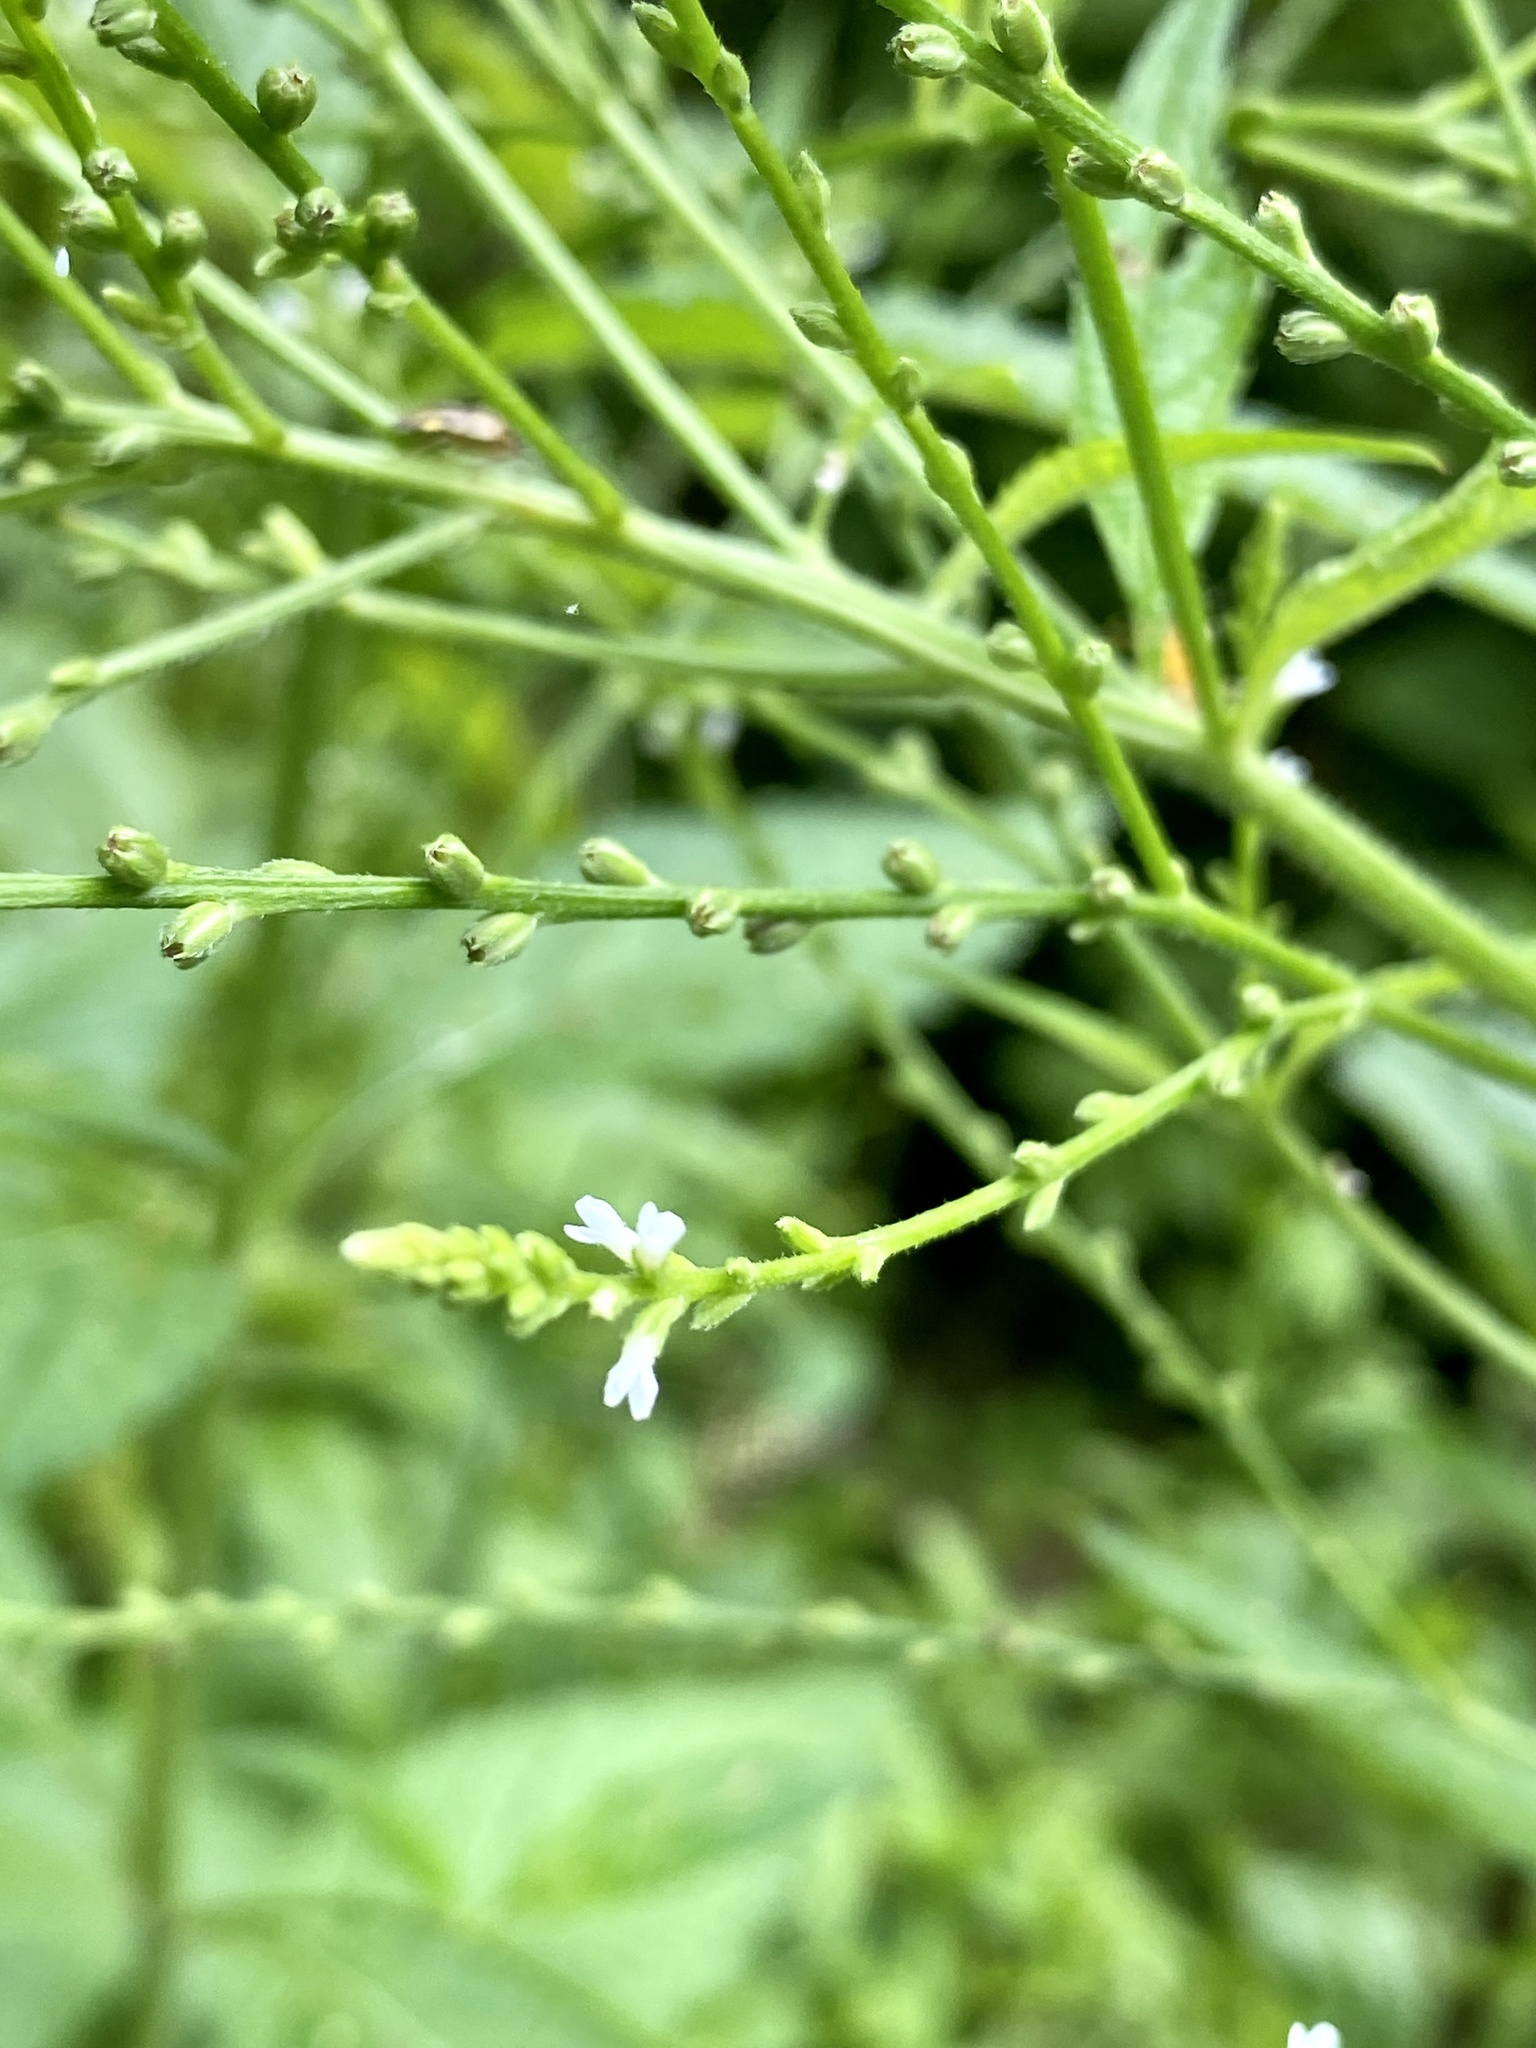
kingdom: Plantae
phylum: Tracheophyta
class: Magnoliopsida
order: Lamiales
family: Verbenaceae
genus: Verbena
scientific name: Verbena urticifolia
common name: Nettle-leaved vervain
